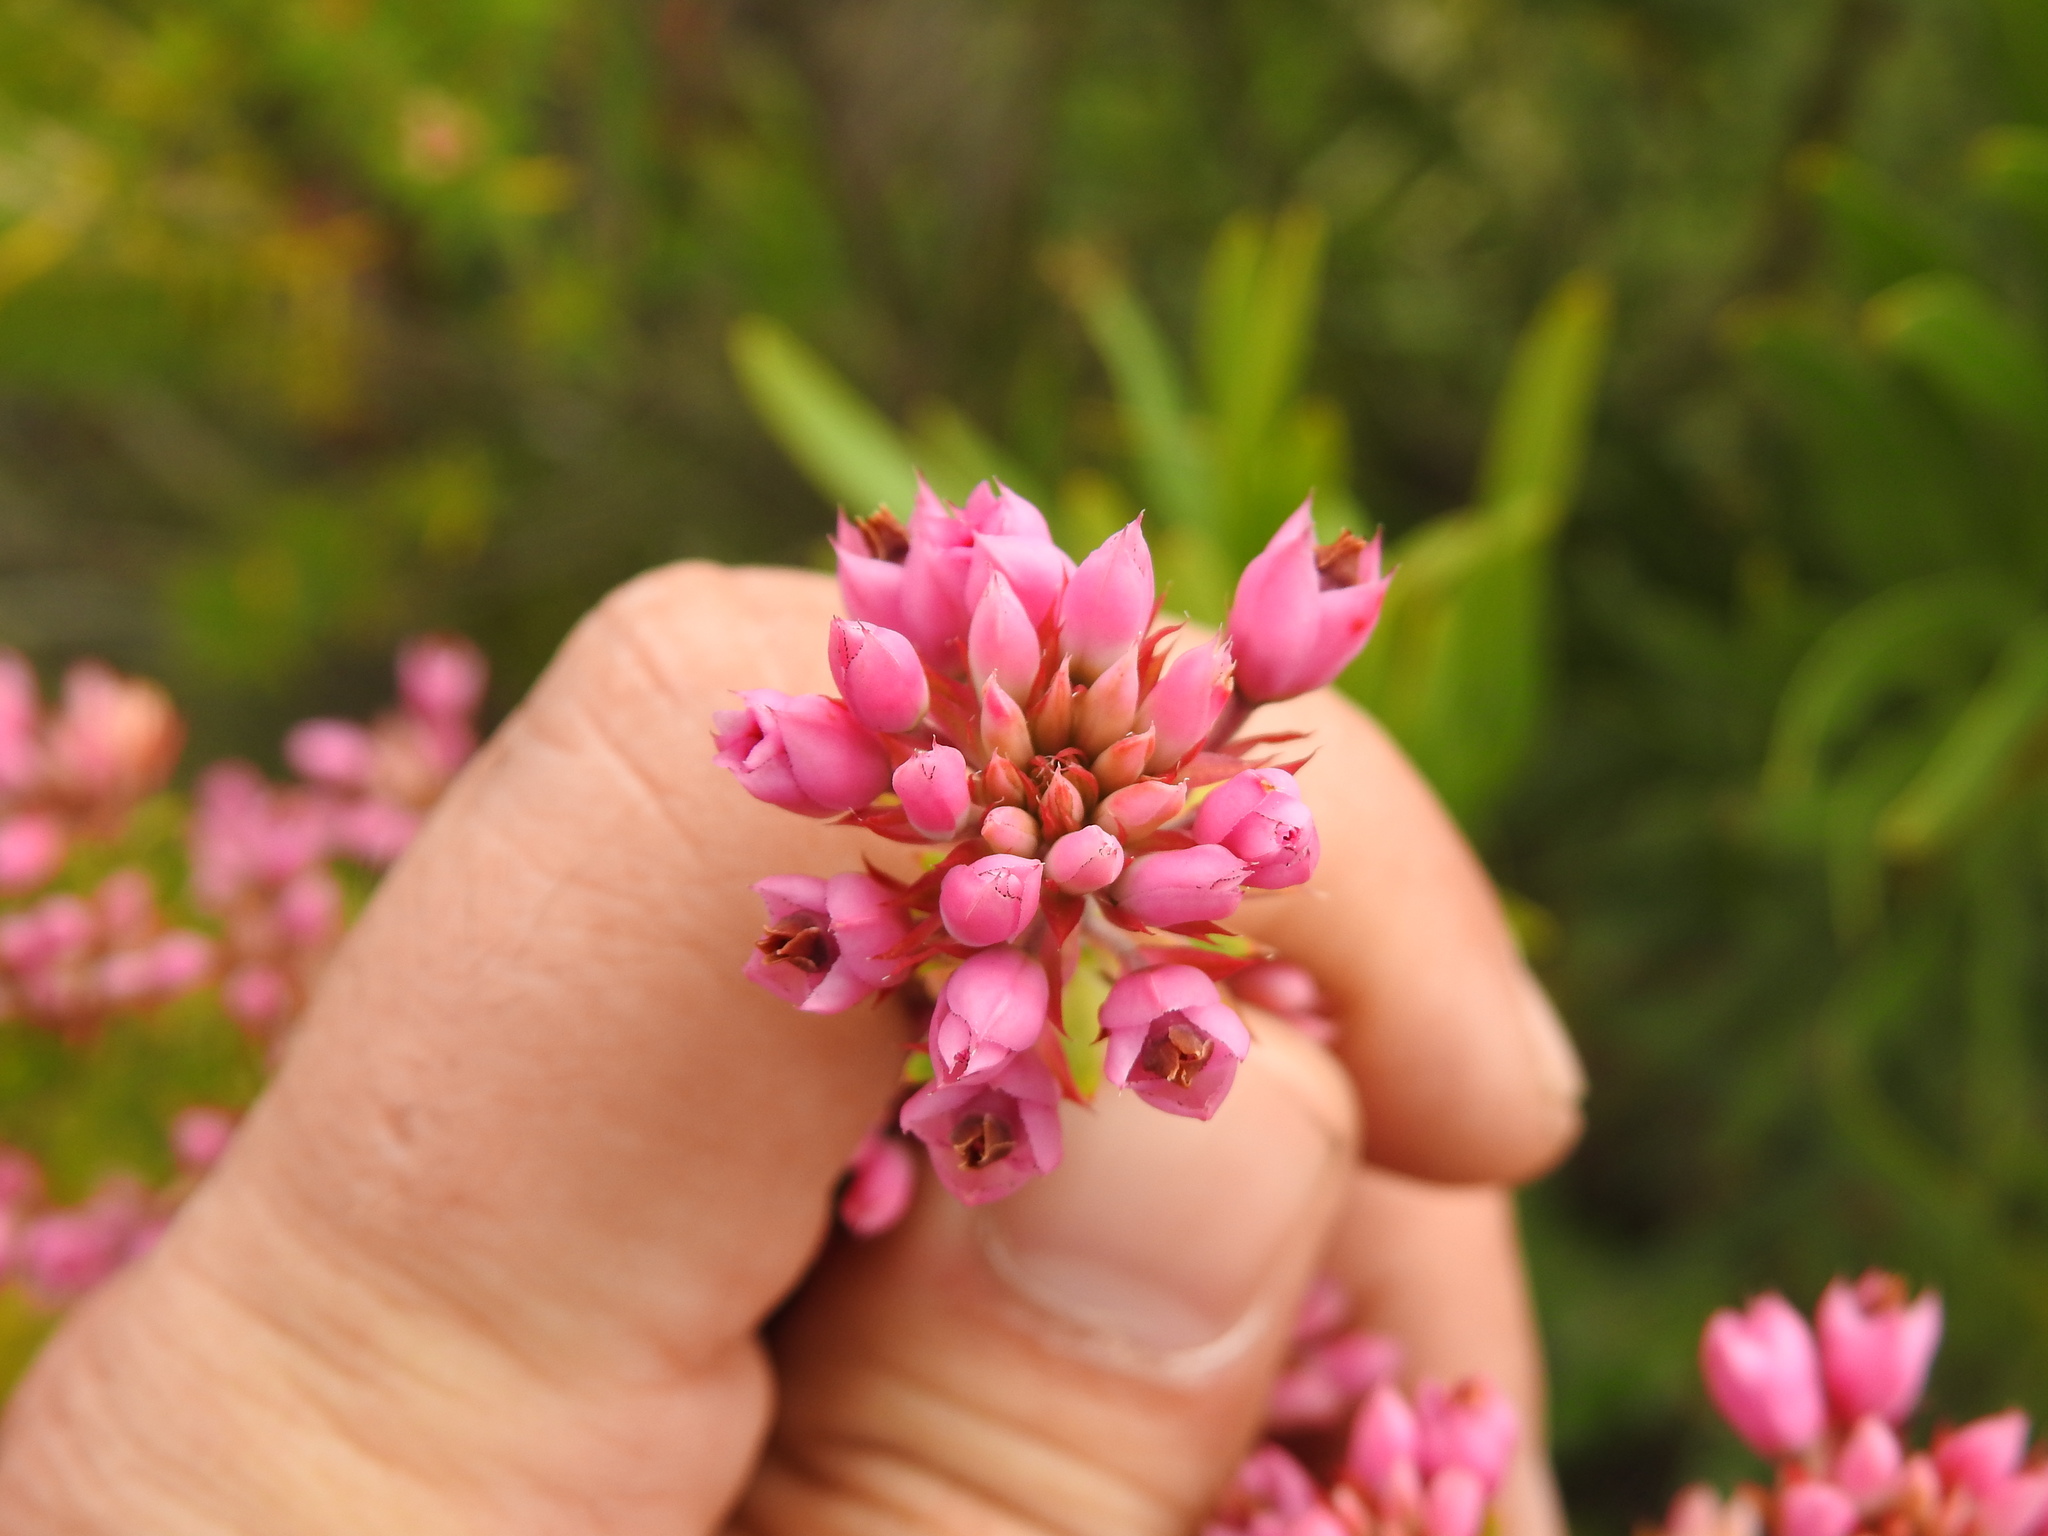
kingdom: Plantae
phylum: Tracheophyta
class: Magnoliopsida
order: Ericales
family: Ericaceae
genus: Erica
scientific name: Erica taxifolia
